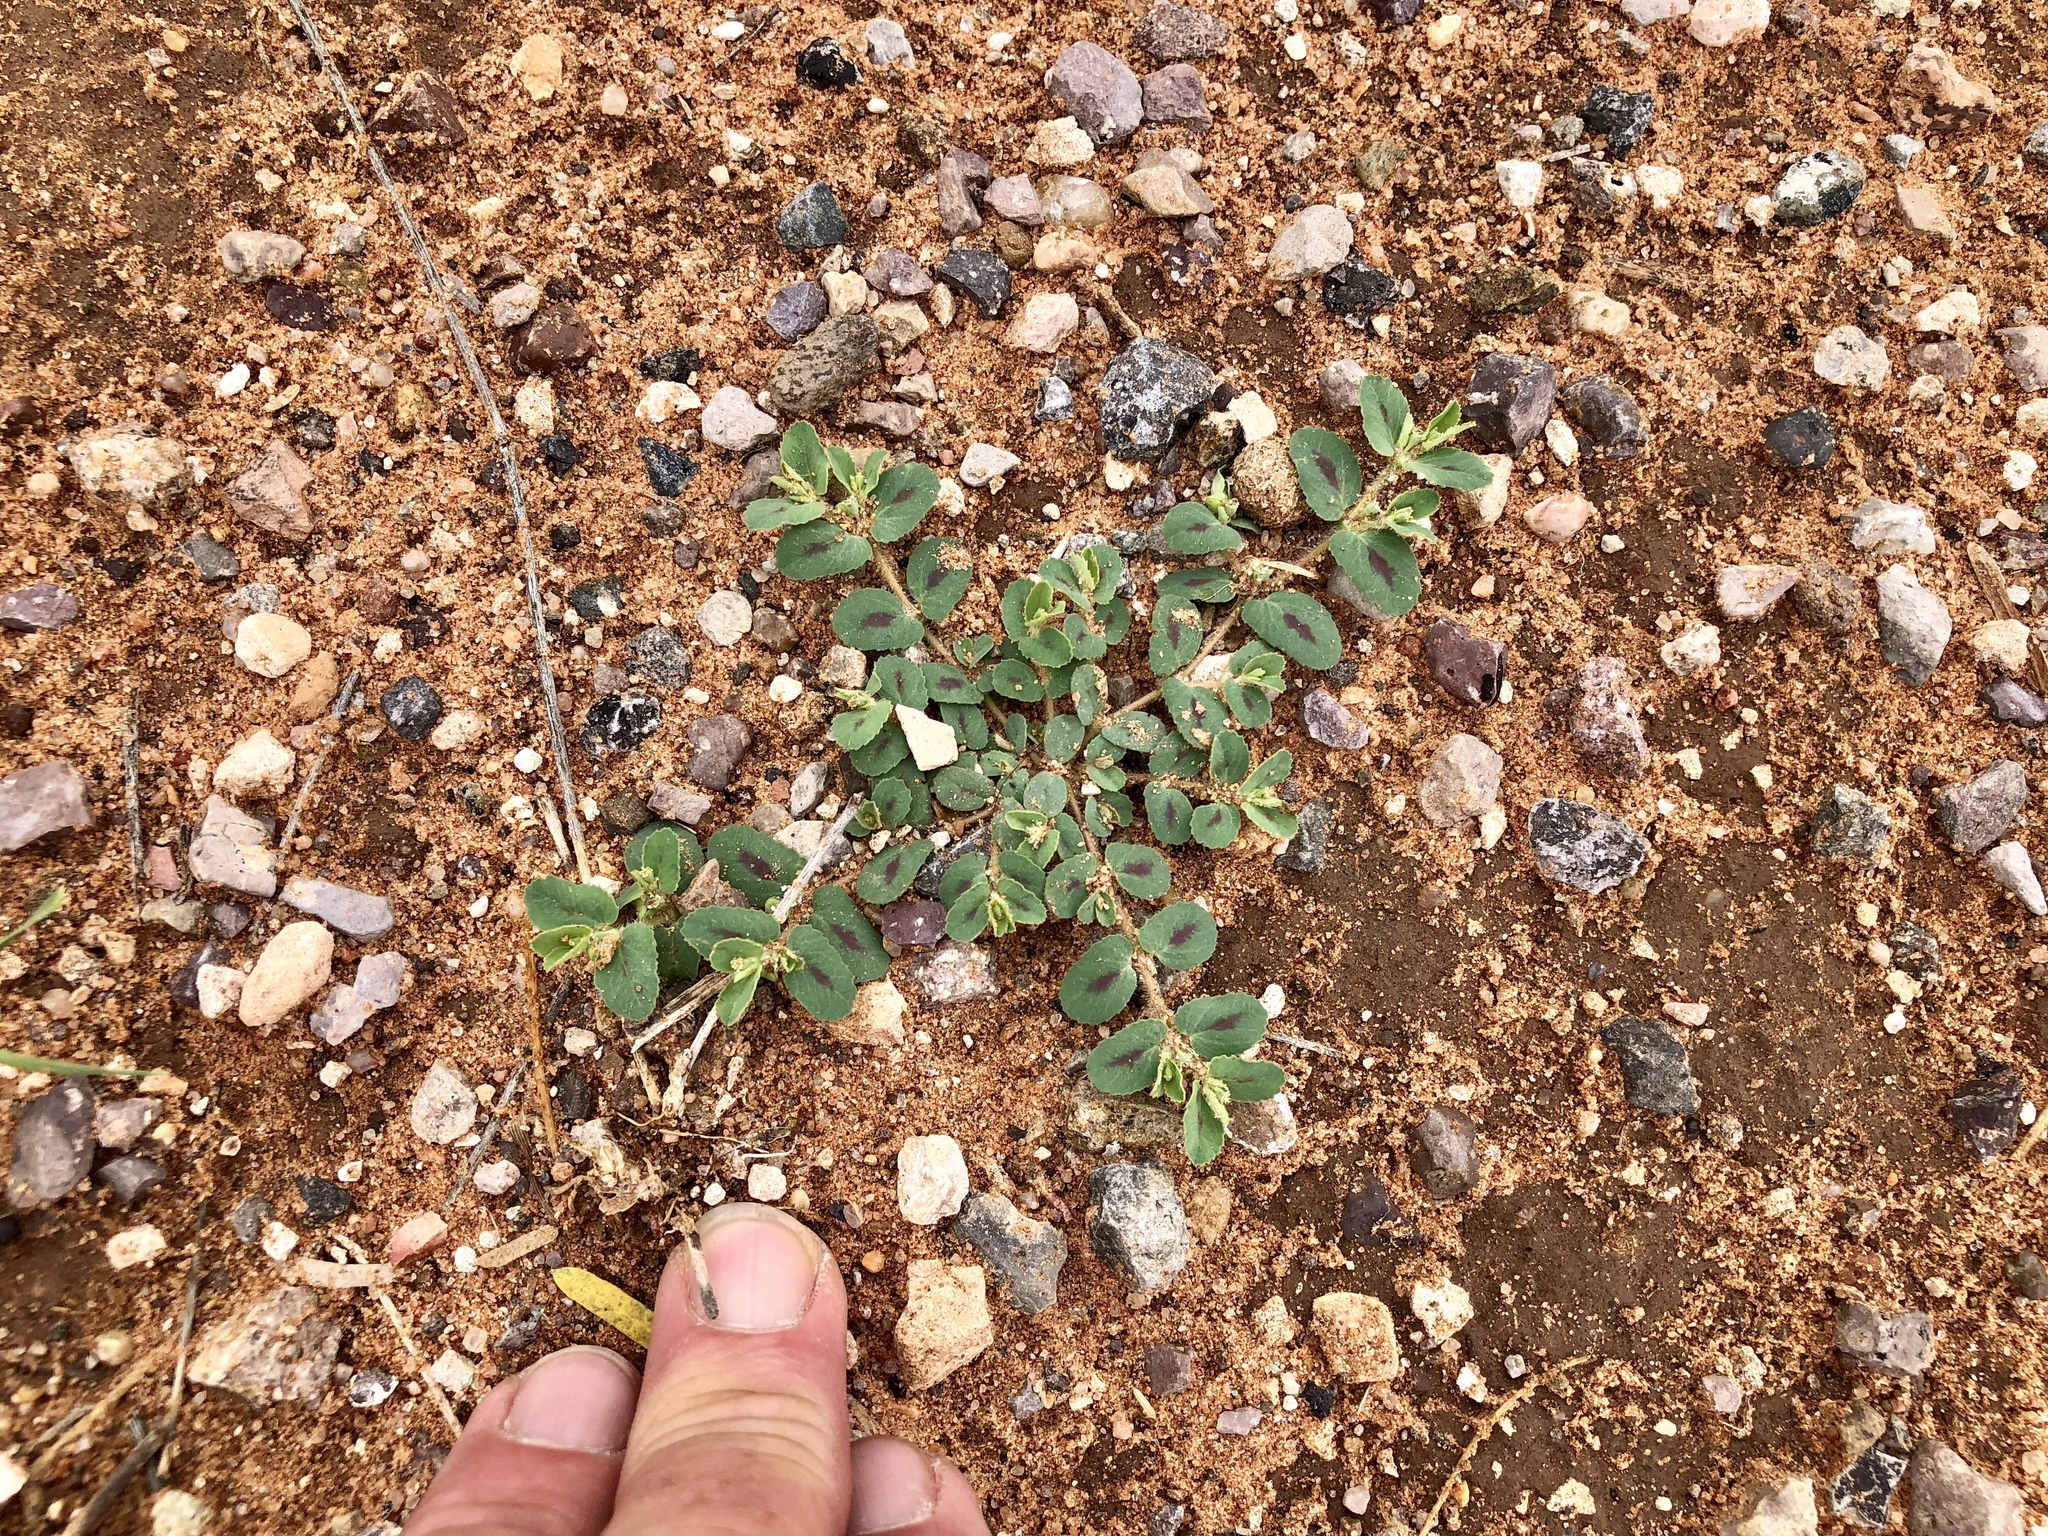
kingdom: Plantae
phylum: Tracheophyta
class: Magnoliopsida
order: Malpighiales
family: Euphorbiaceae
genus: Euphorbia
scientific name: Euphorbia serrula
